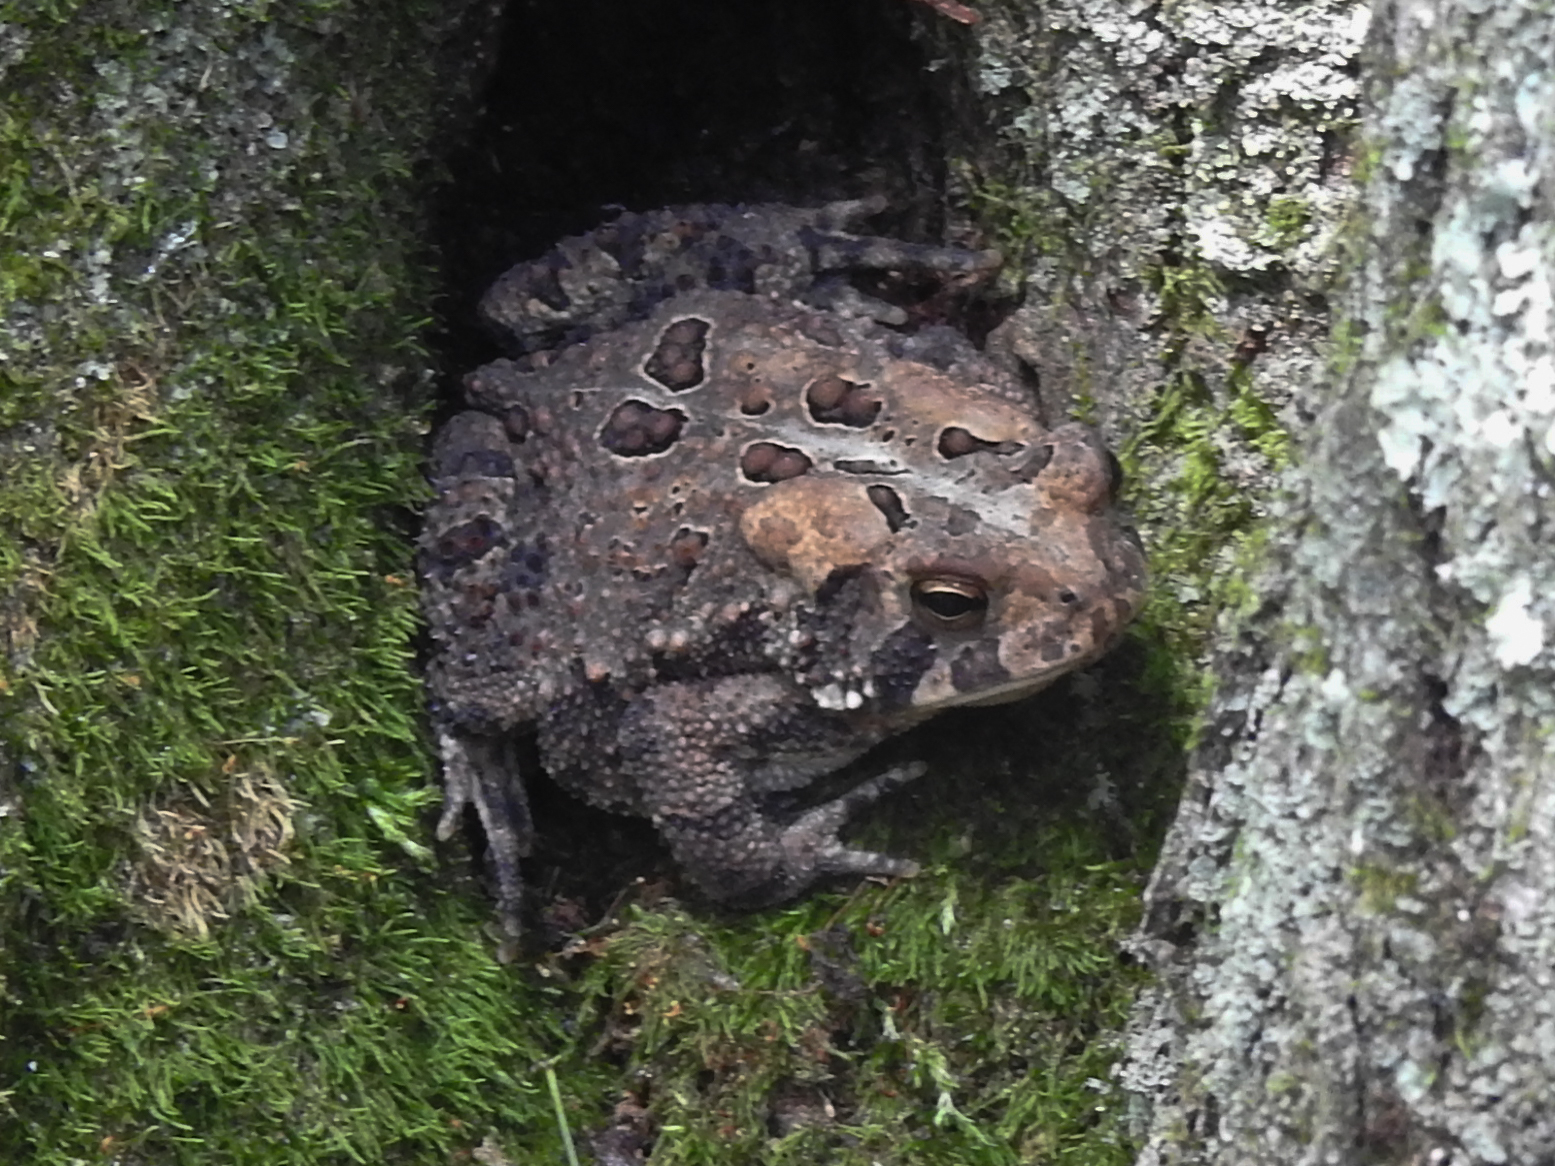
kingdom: Animalia
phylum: Chordata
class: Amphibia
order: Anura
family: Bufonidae
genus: Anaxyrus
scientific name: Anaxyrus americanus
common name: American toad
